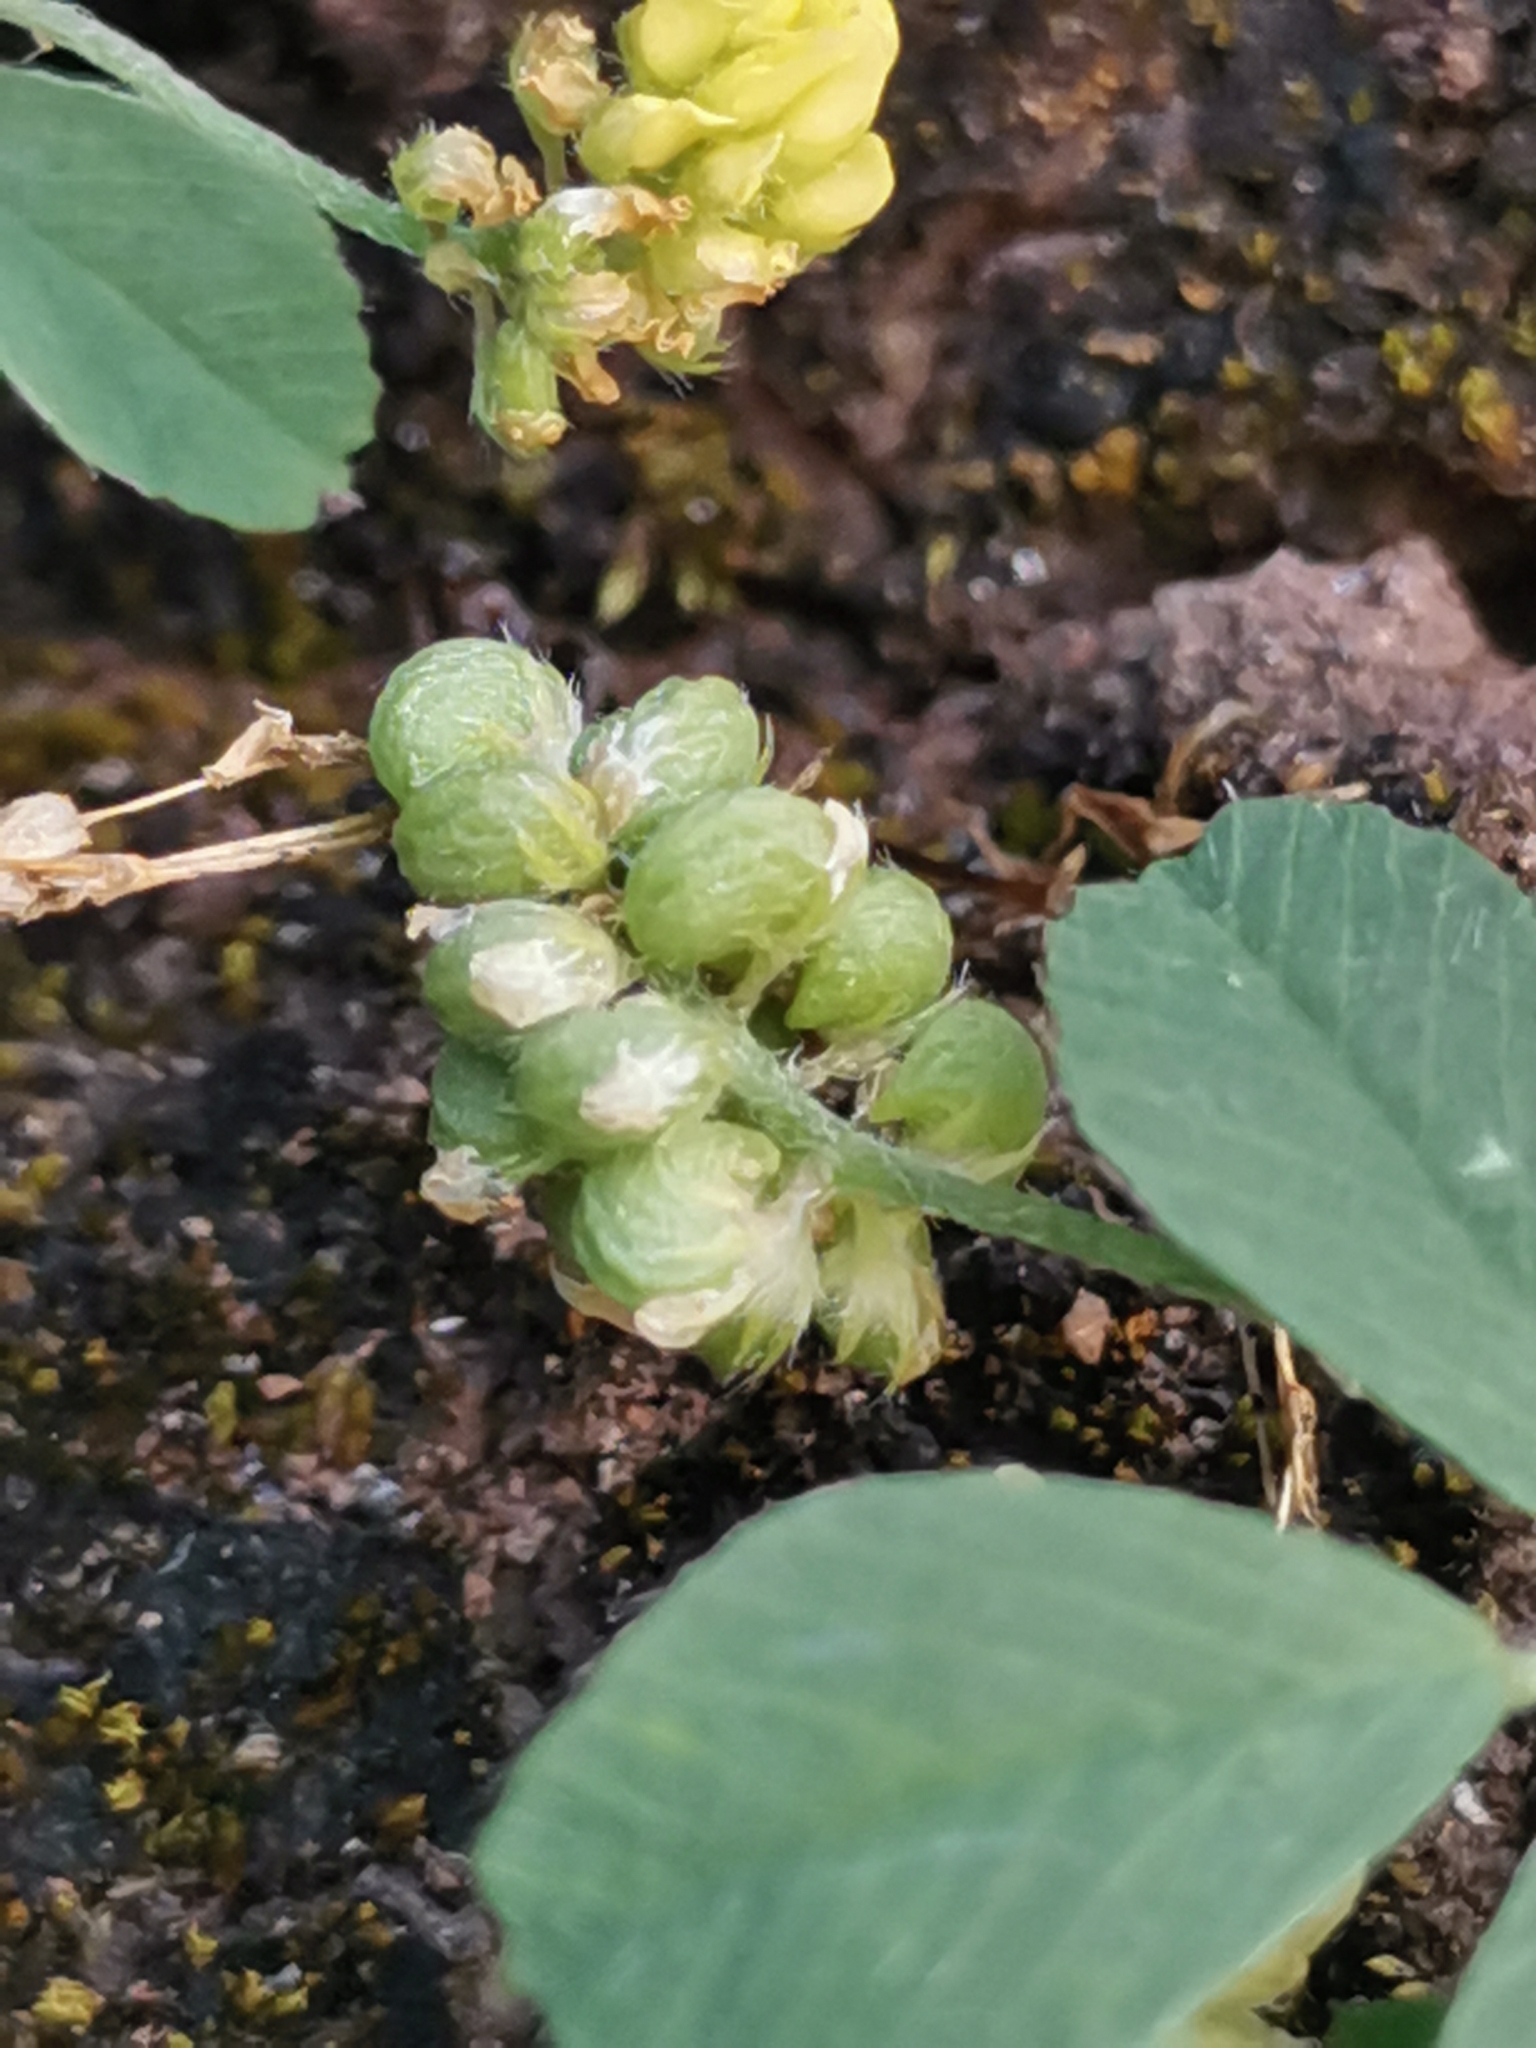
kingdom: Plantae
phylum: Tracheophyta
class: Magnoliopsida
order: Fabales
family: Fabaceae
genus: Medicago
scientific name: Medicago lupulina
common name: Black medick
